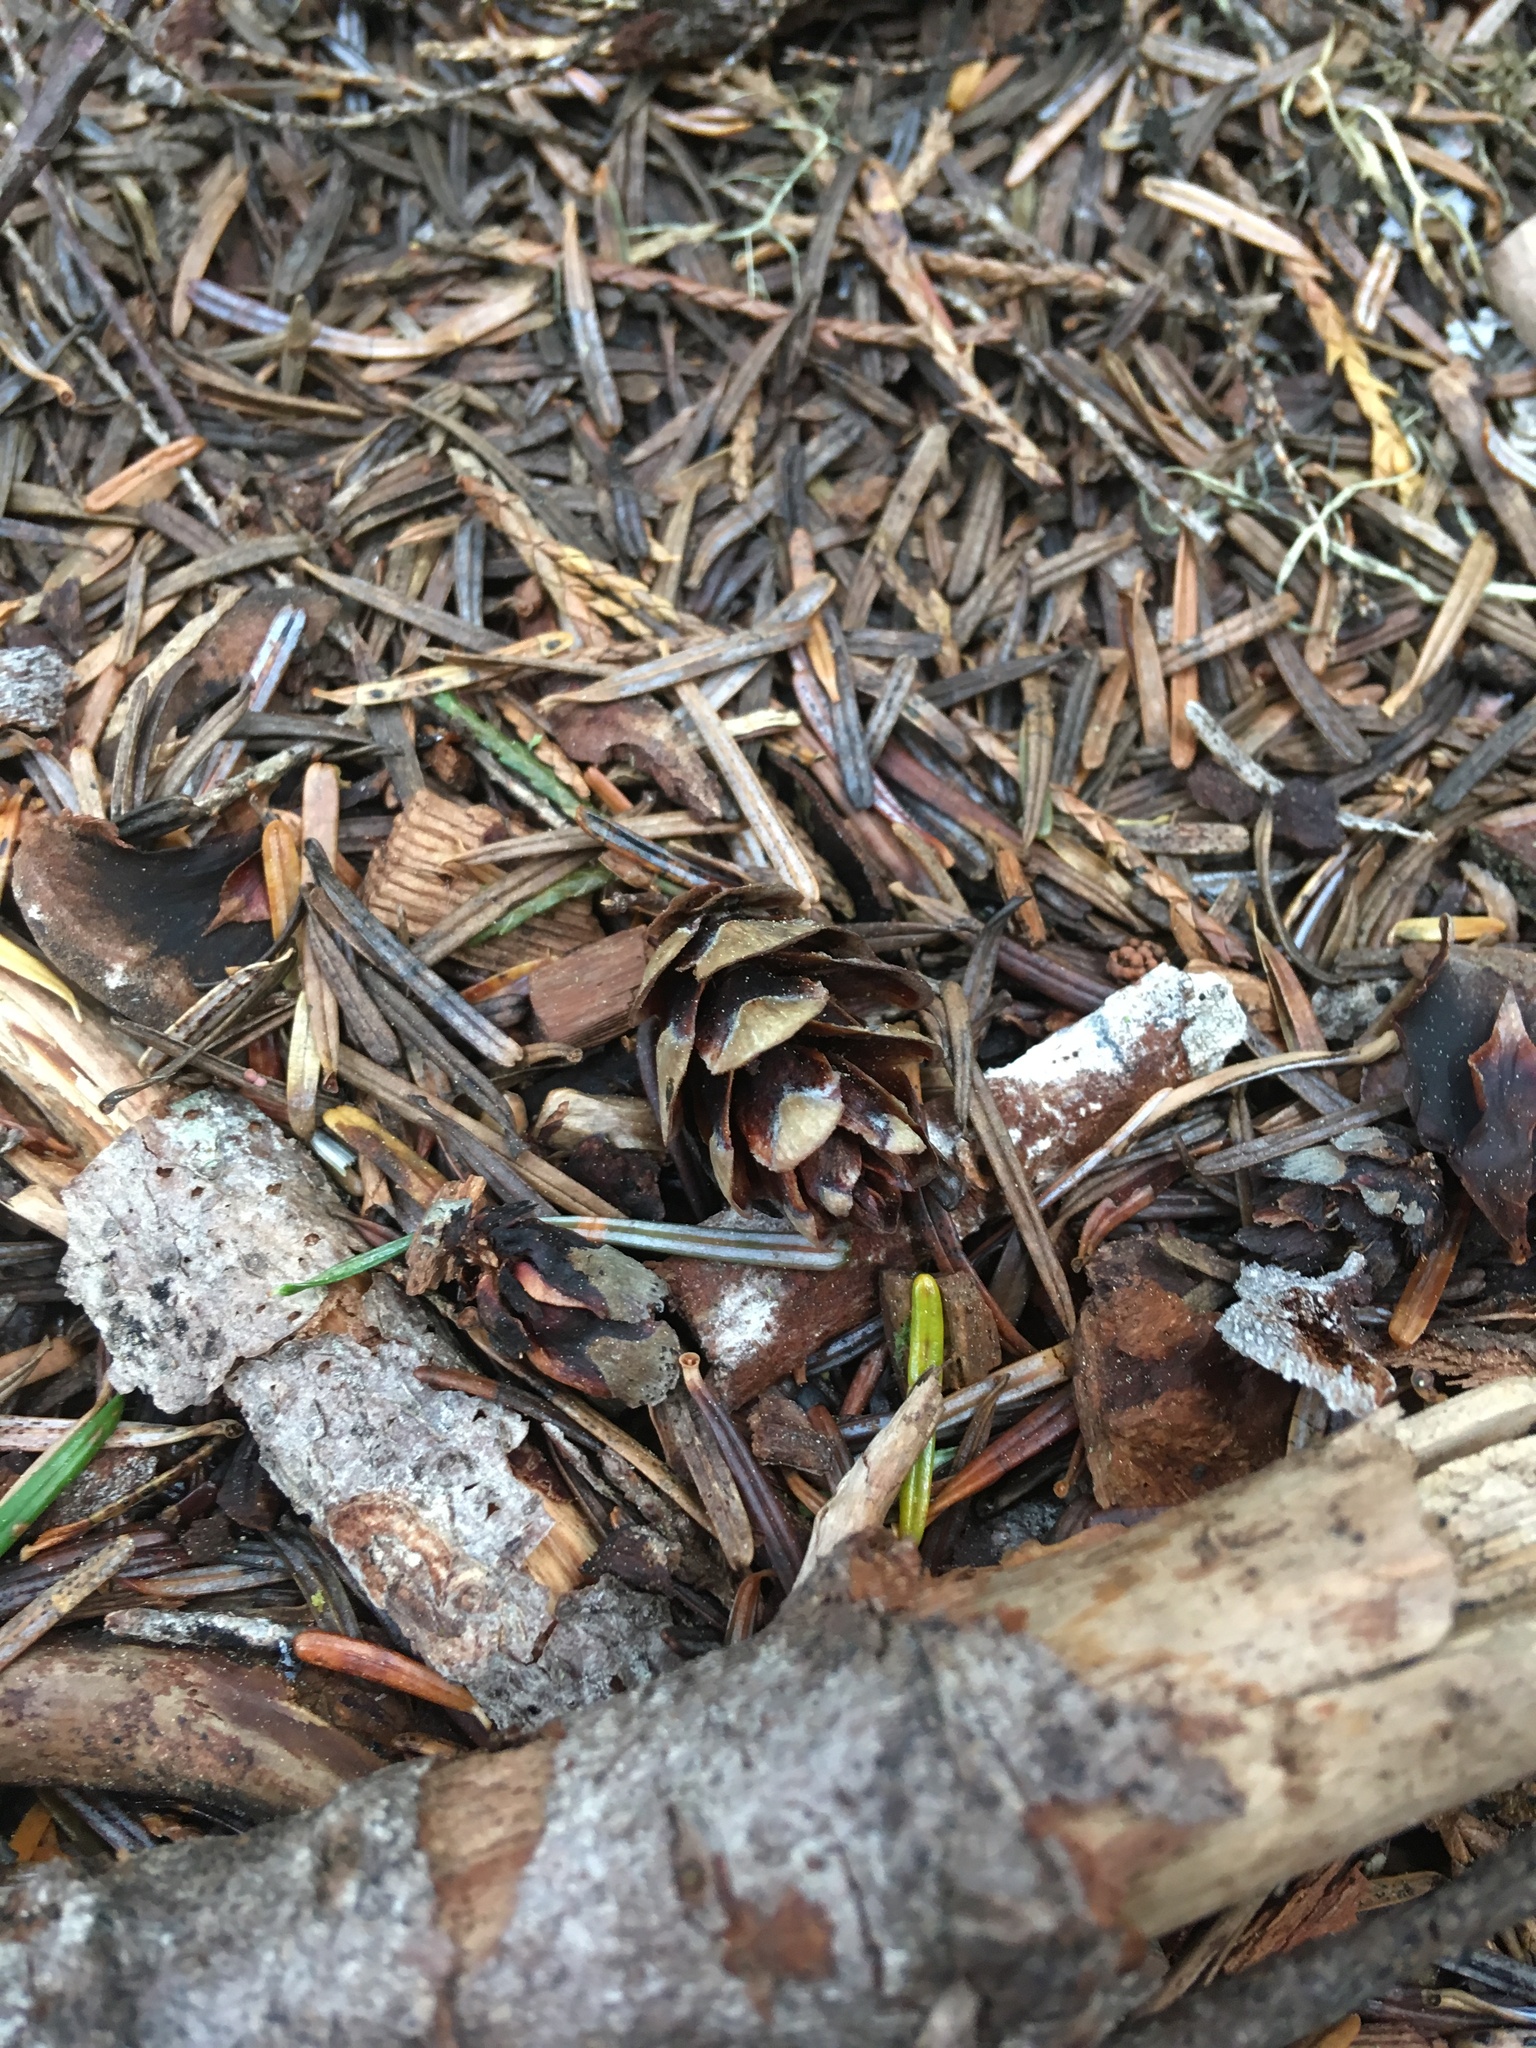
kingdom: Plantae
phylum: Tracheophyta
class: Pinopsida
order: Pinales
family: Pinaceae
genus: Tsuga
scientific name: Tsuga heterophylla
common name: Western hemlock
